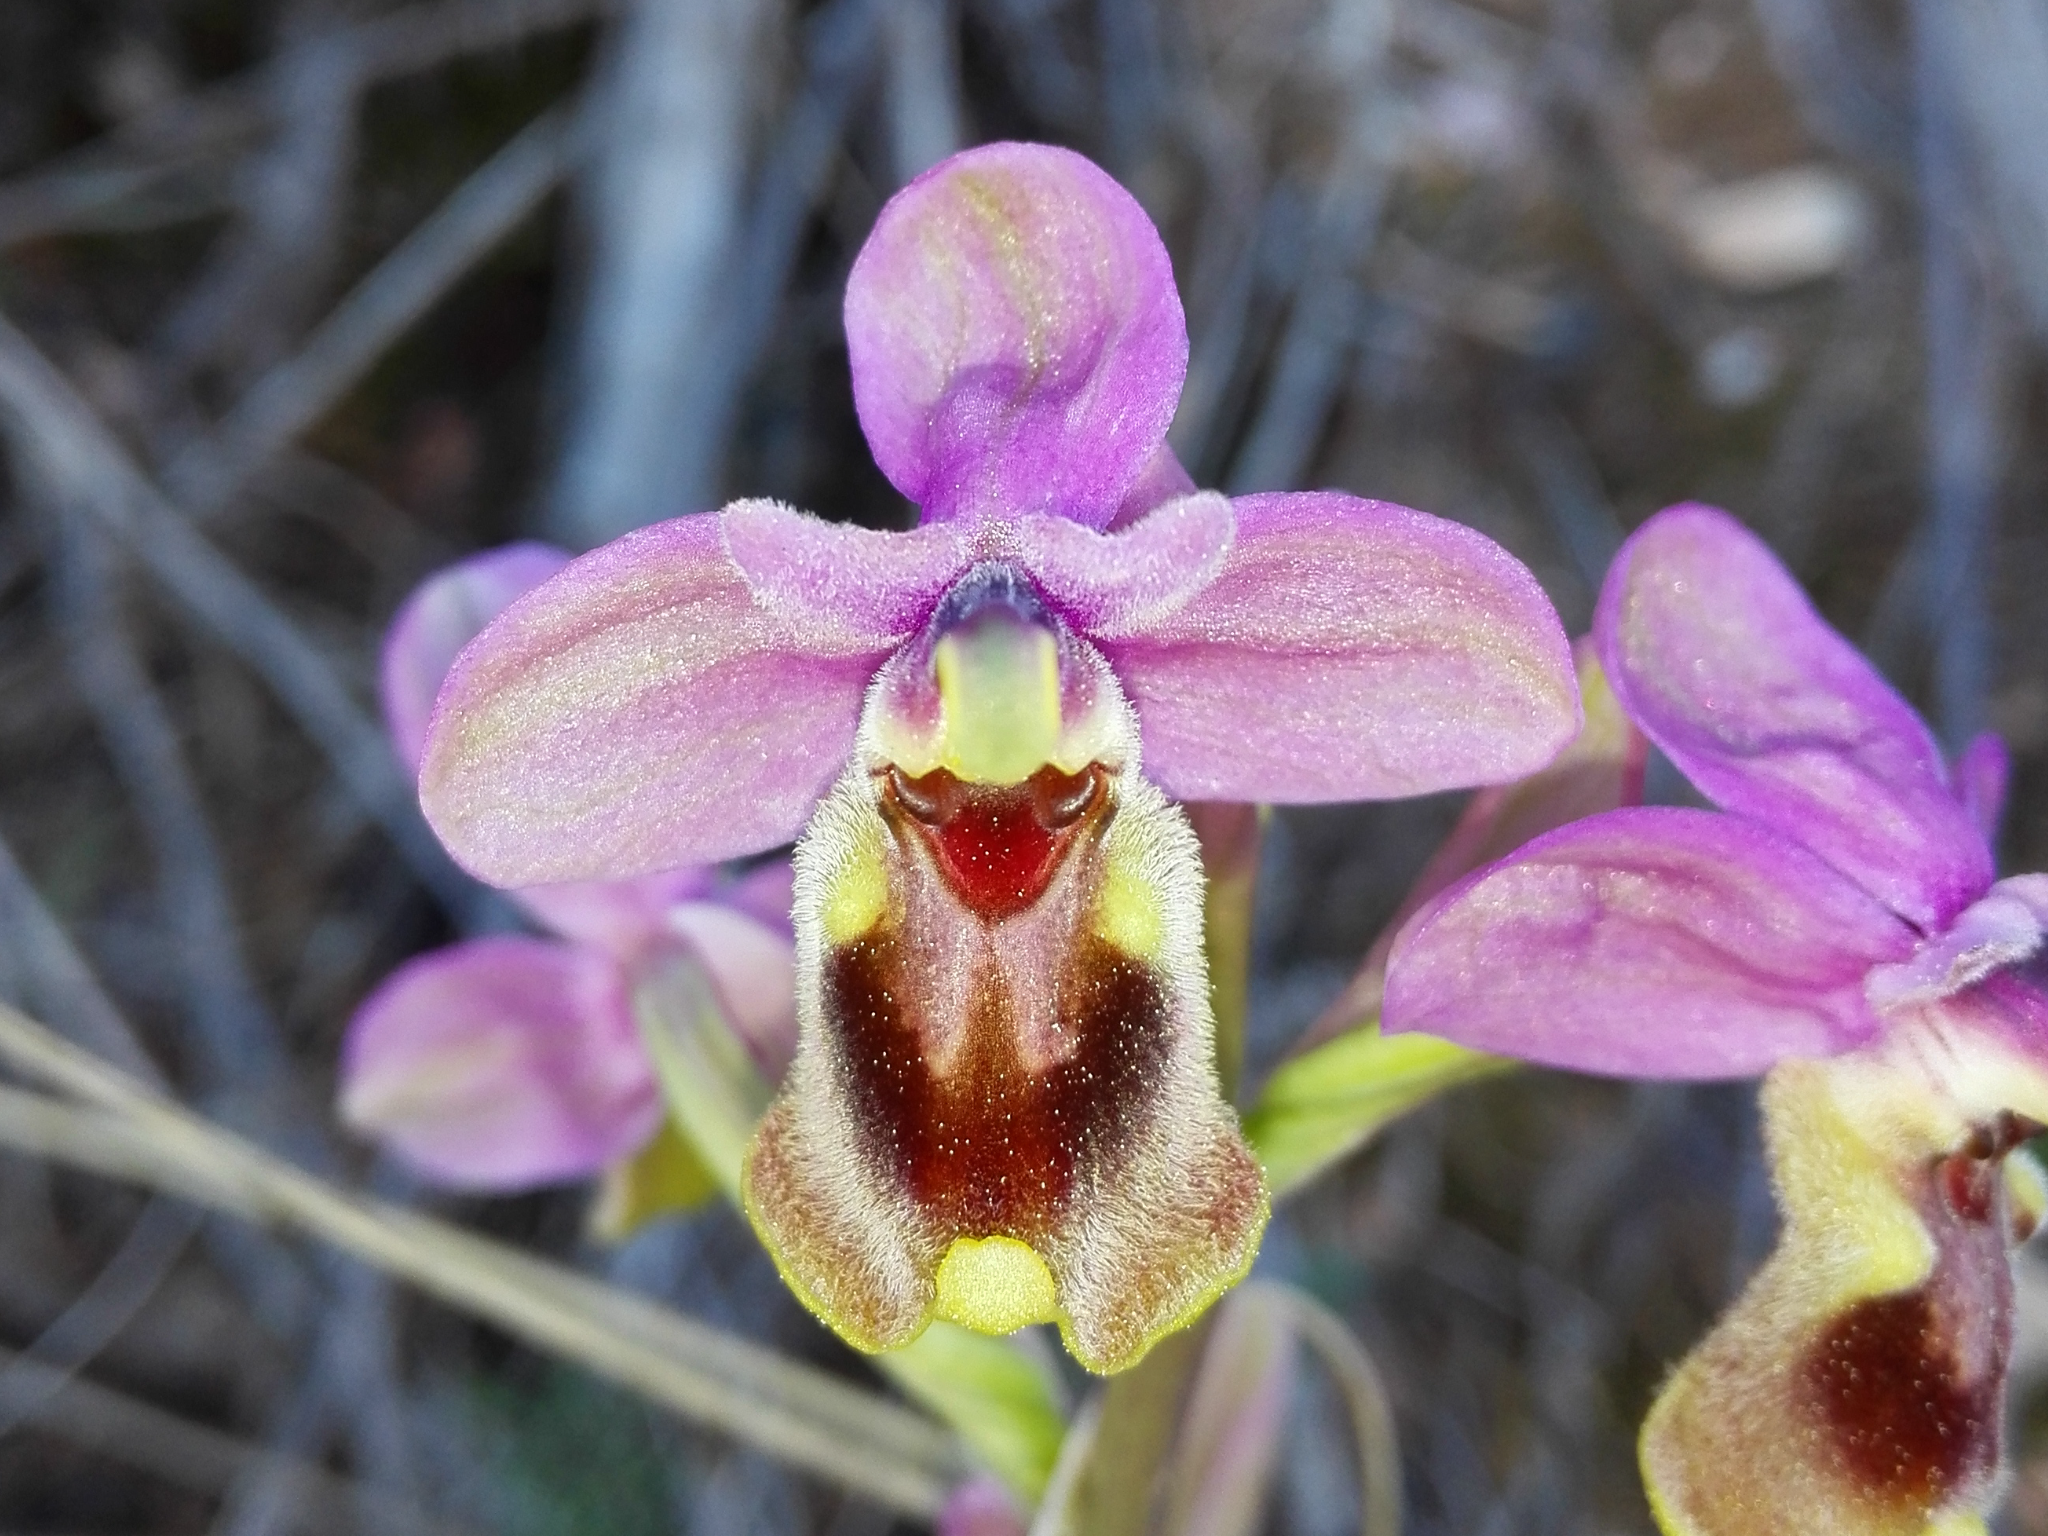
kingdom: Plantae
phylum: Tracheophyta
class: Liliopsida
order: Asparagales
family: Orchidaceae
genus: Ophrys
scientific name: Ophrys tenthredinifera
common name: Sawfly orchid
